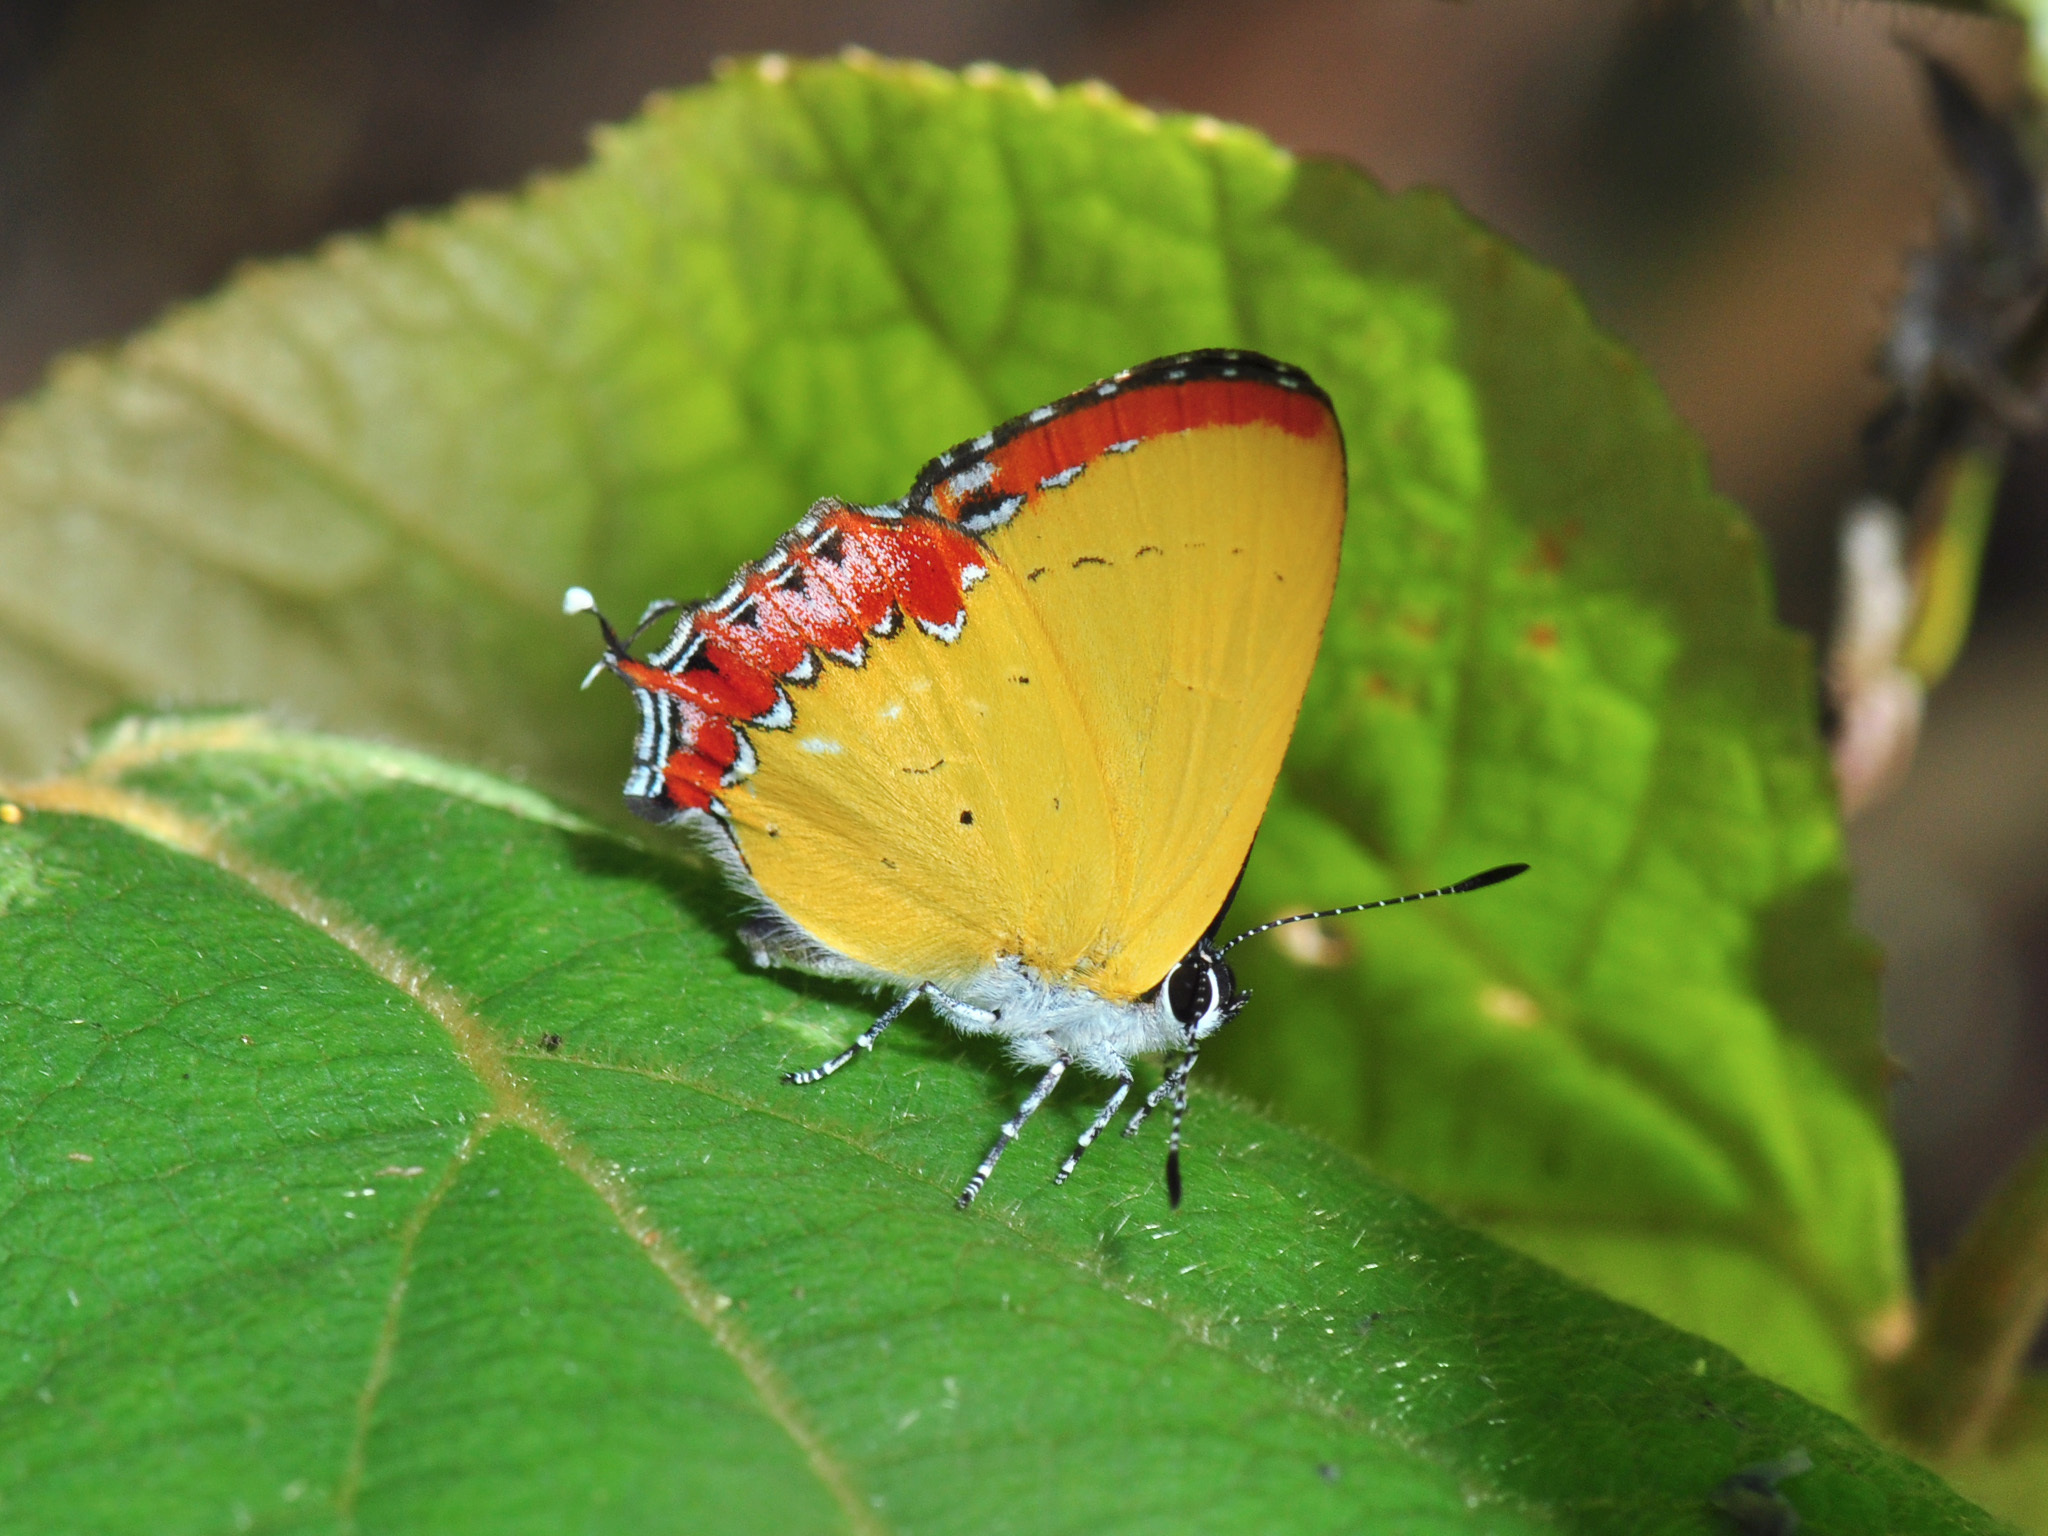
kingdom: Animalia
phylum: Arthropoda
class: Insecta
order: Lepidoptera
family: Lycaenidae
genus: Heliophorus
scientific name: Heliophorus epicles
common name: Purple sapphire
